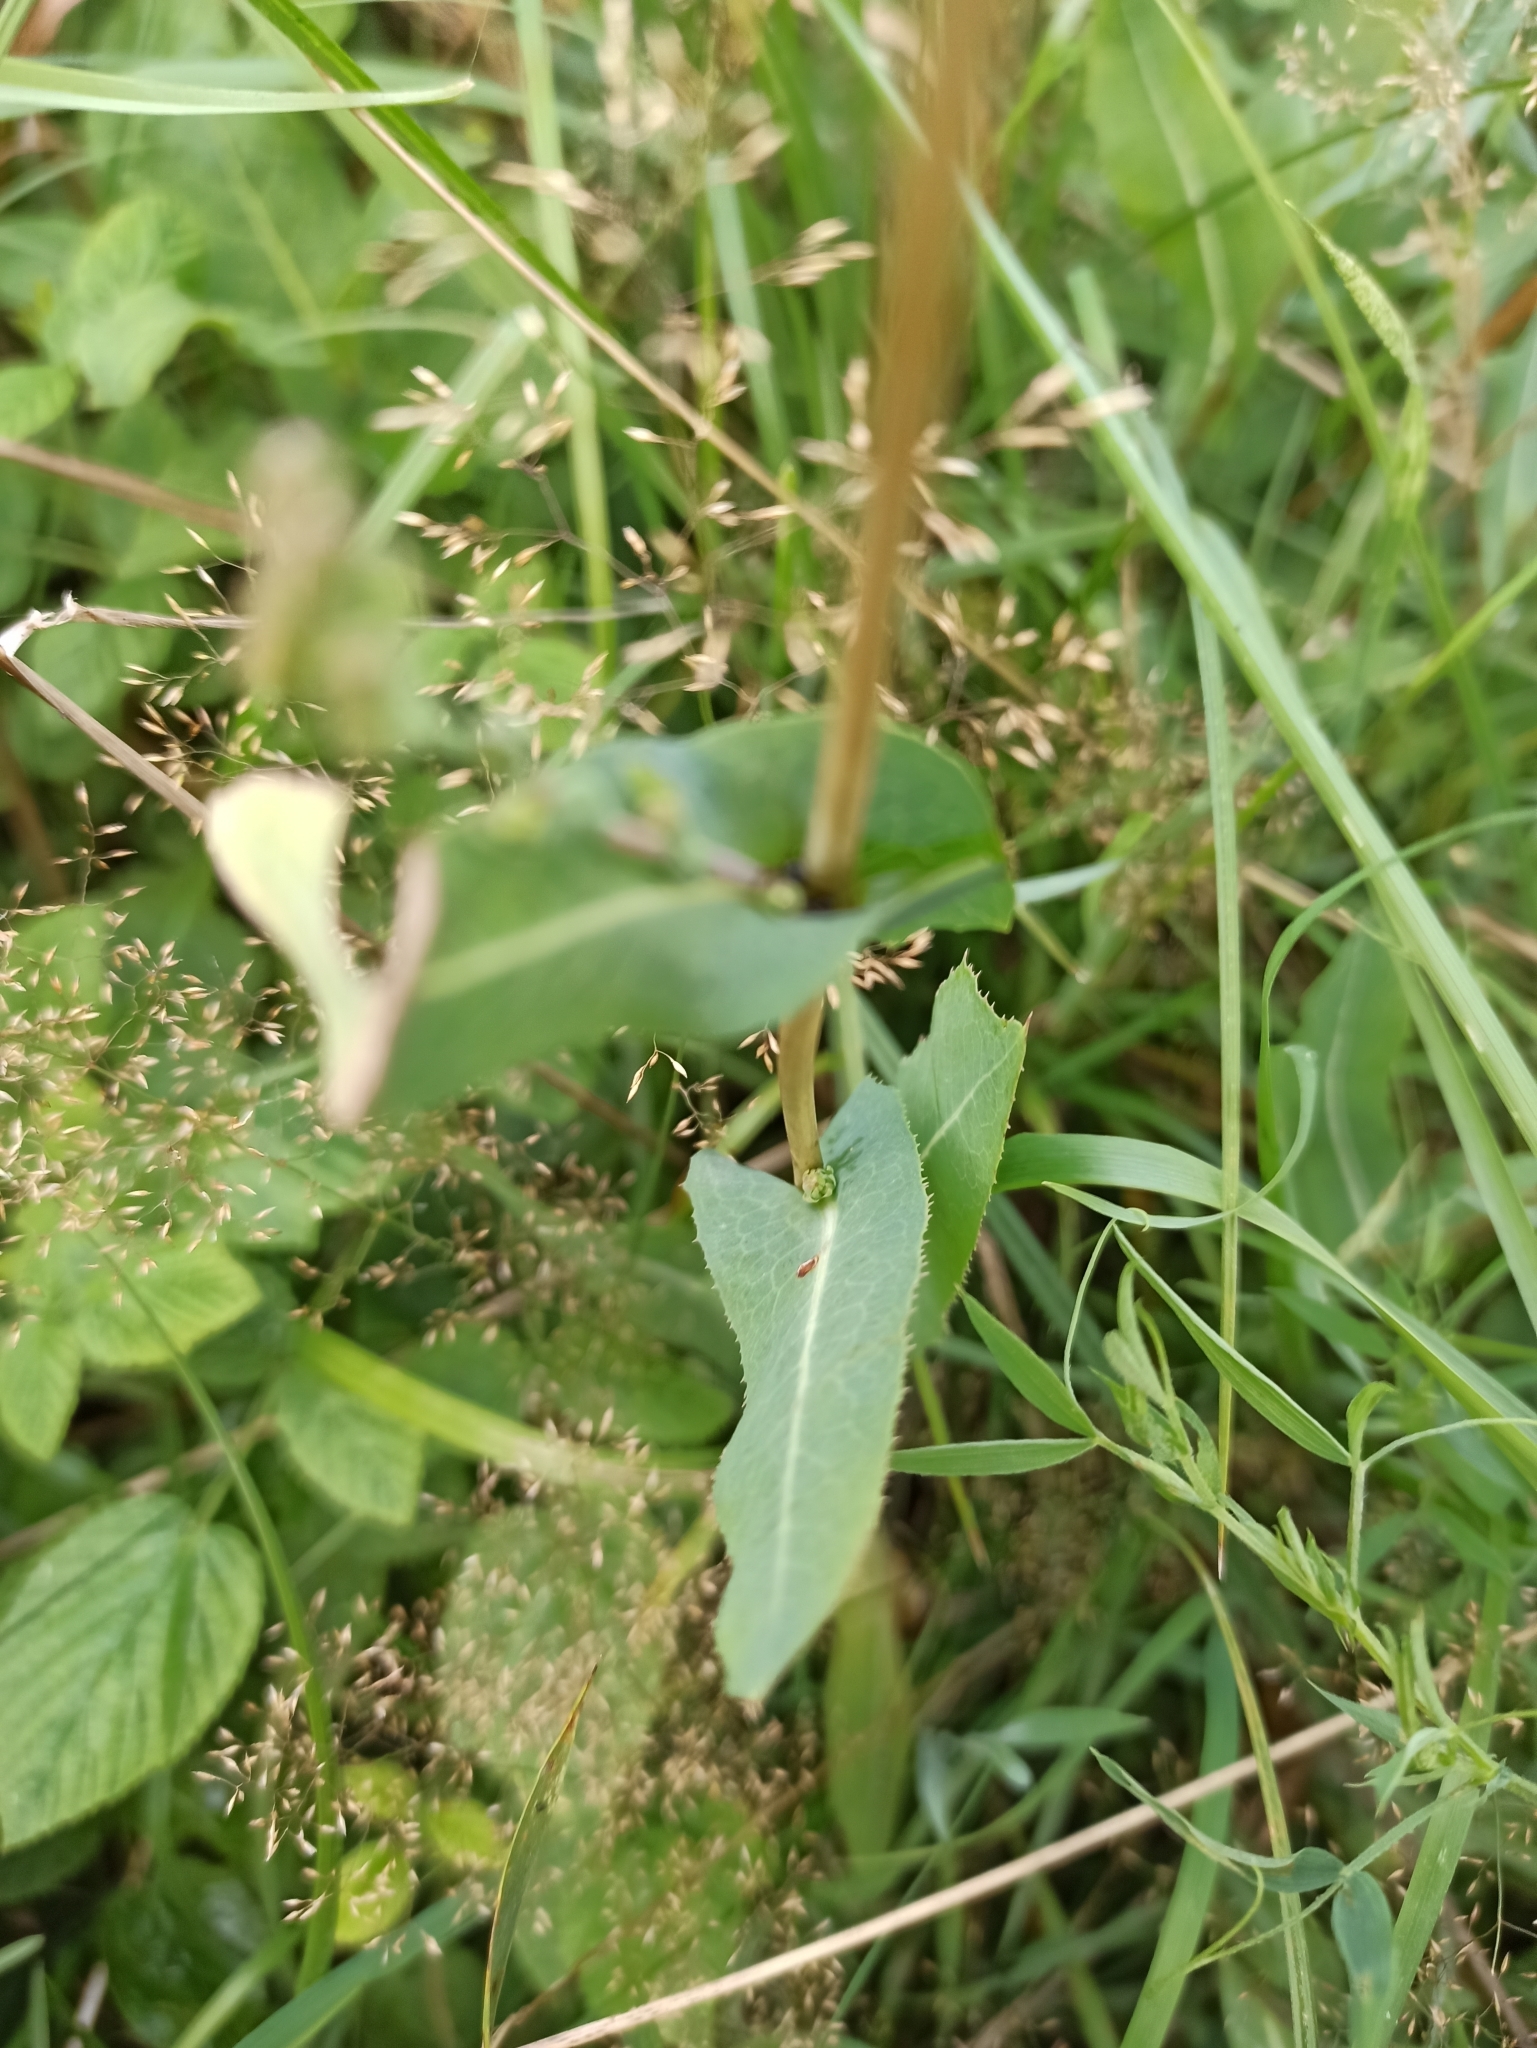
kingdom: Plantae
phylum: Tracheophyta
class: Magnoliopsida
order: Asterales
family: Asteraceae
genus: Lactuca
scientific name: Lactuca serriola
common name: Prickly lettuce
